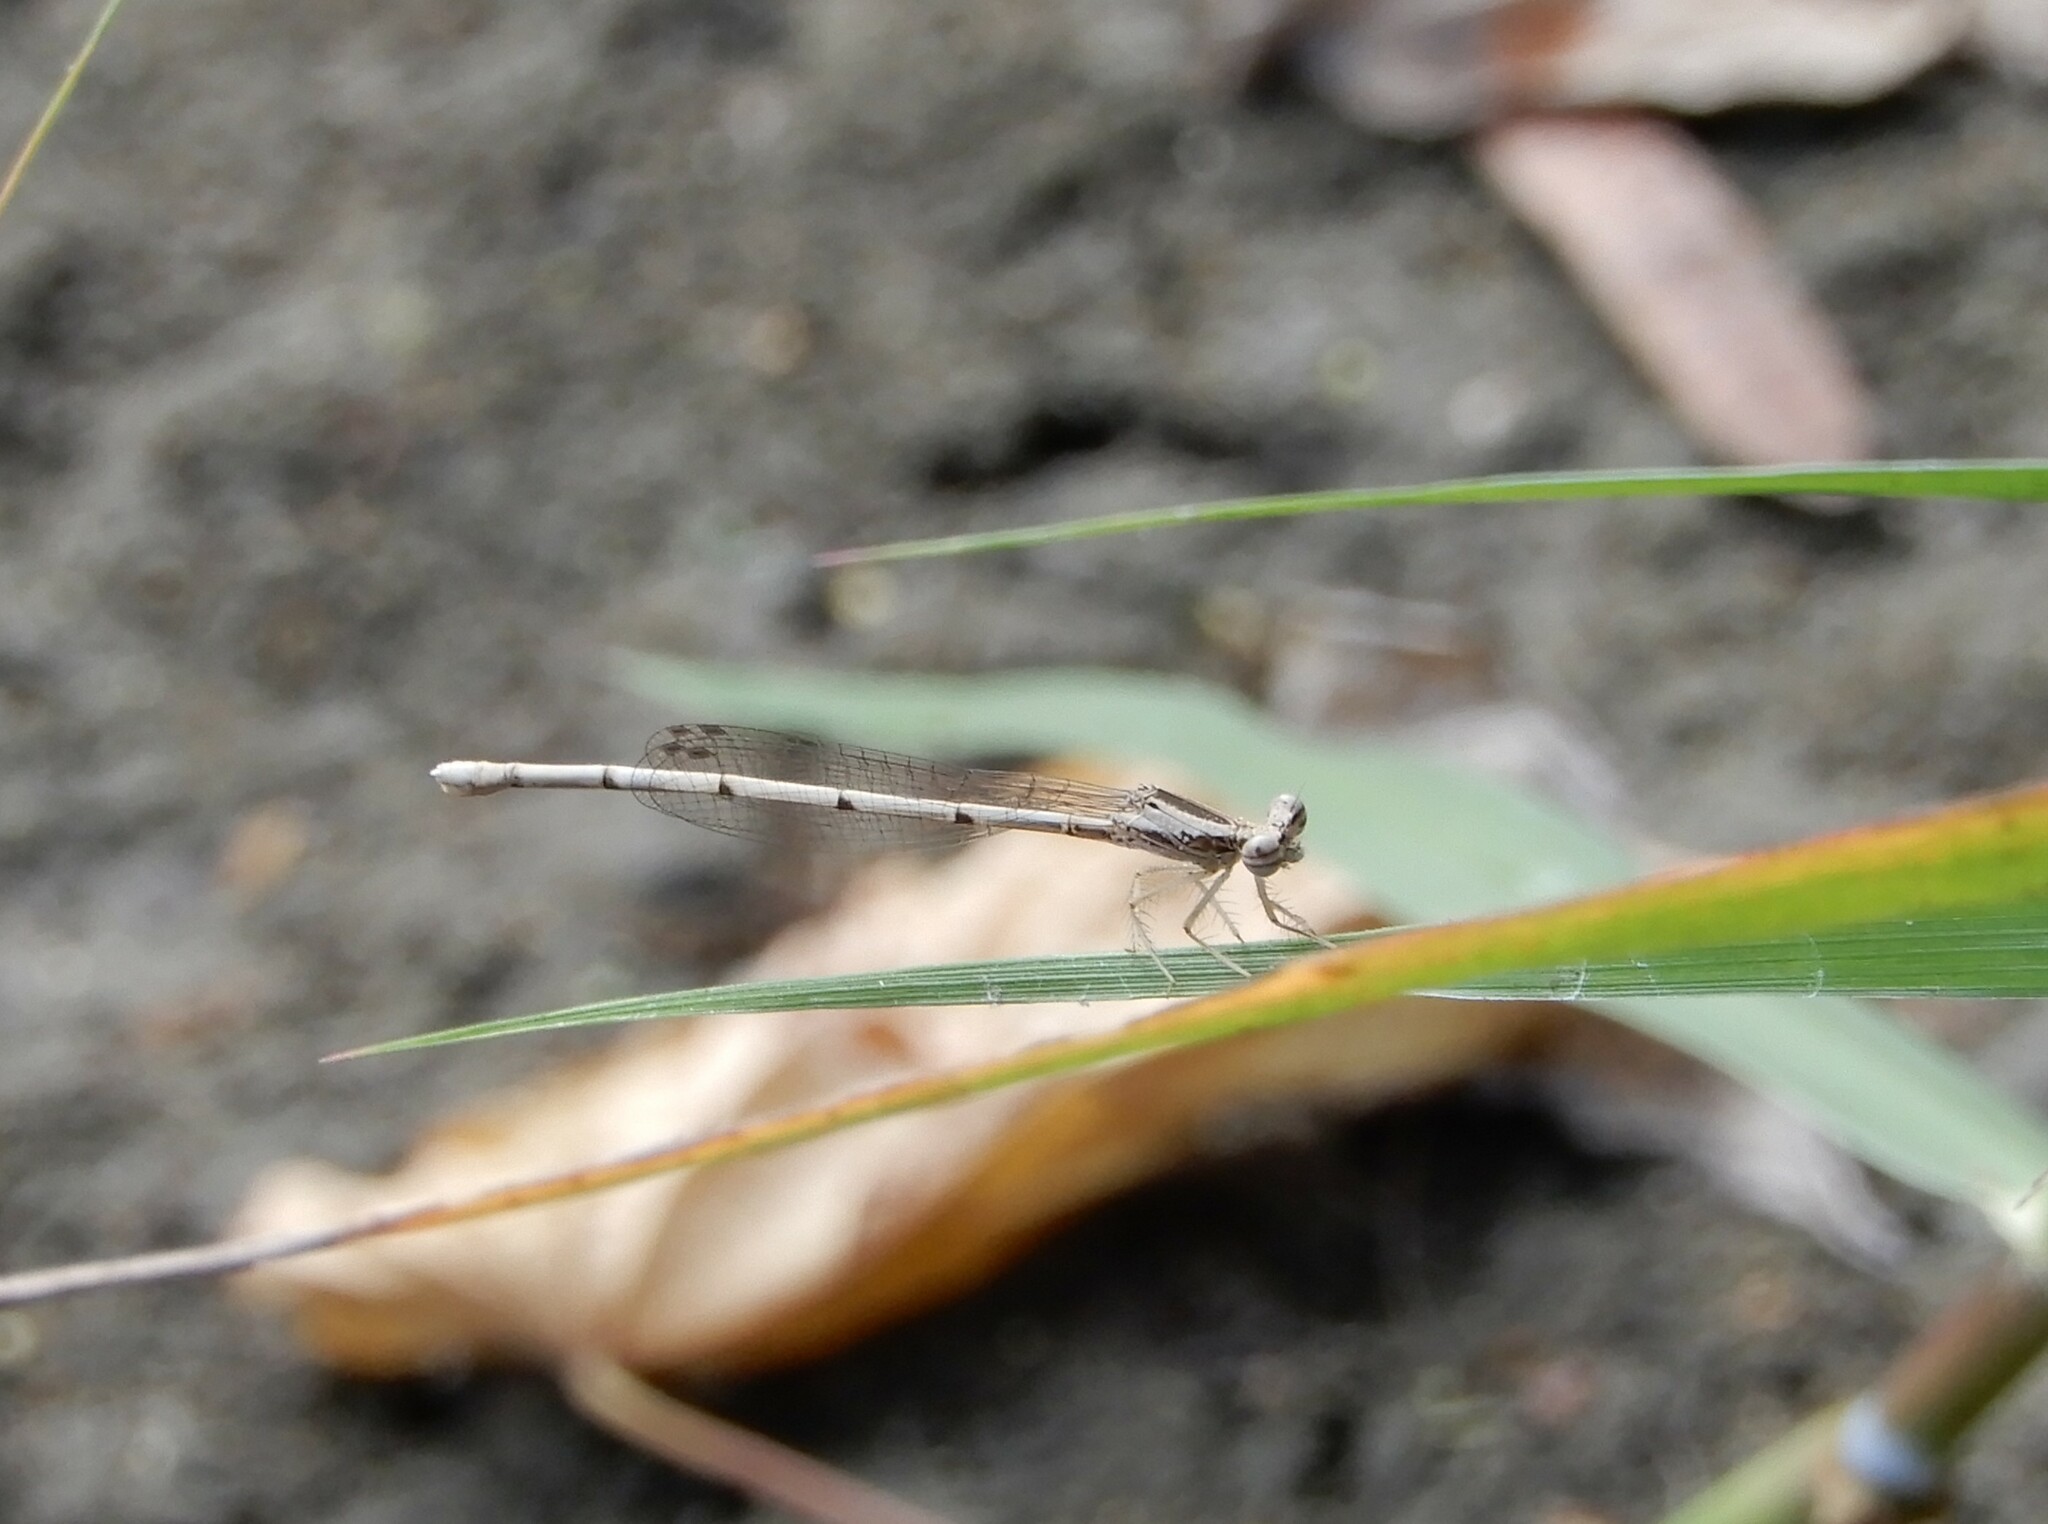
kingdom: Animalia
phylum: Arthropoda
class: Insecta
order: Odonata
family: Platycnemididae
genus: Copera
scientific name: Copera marginipes
